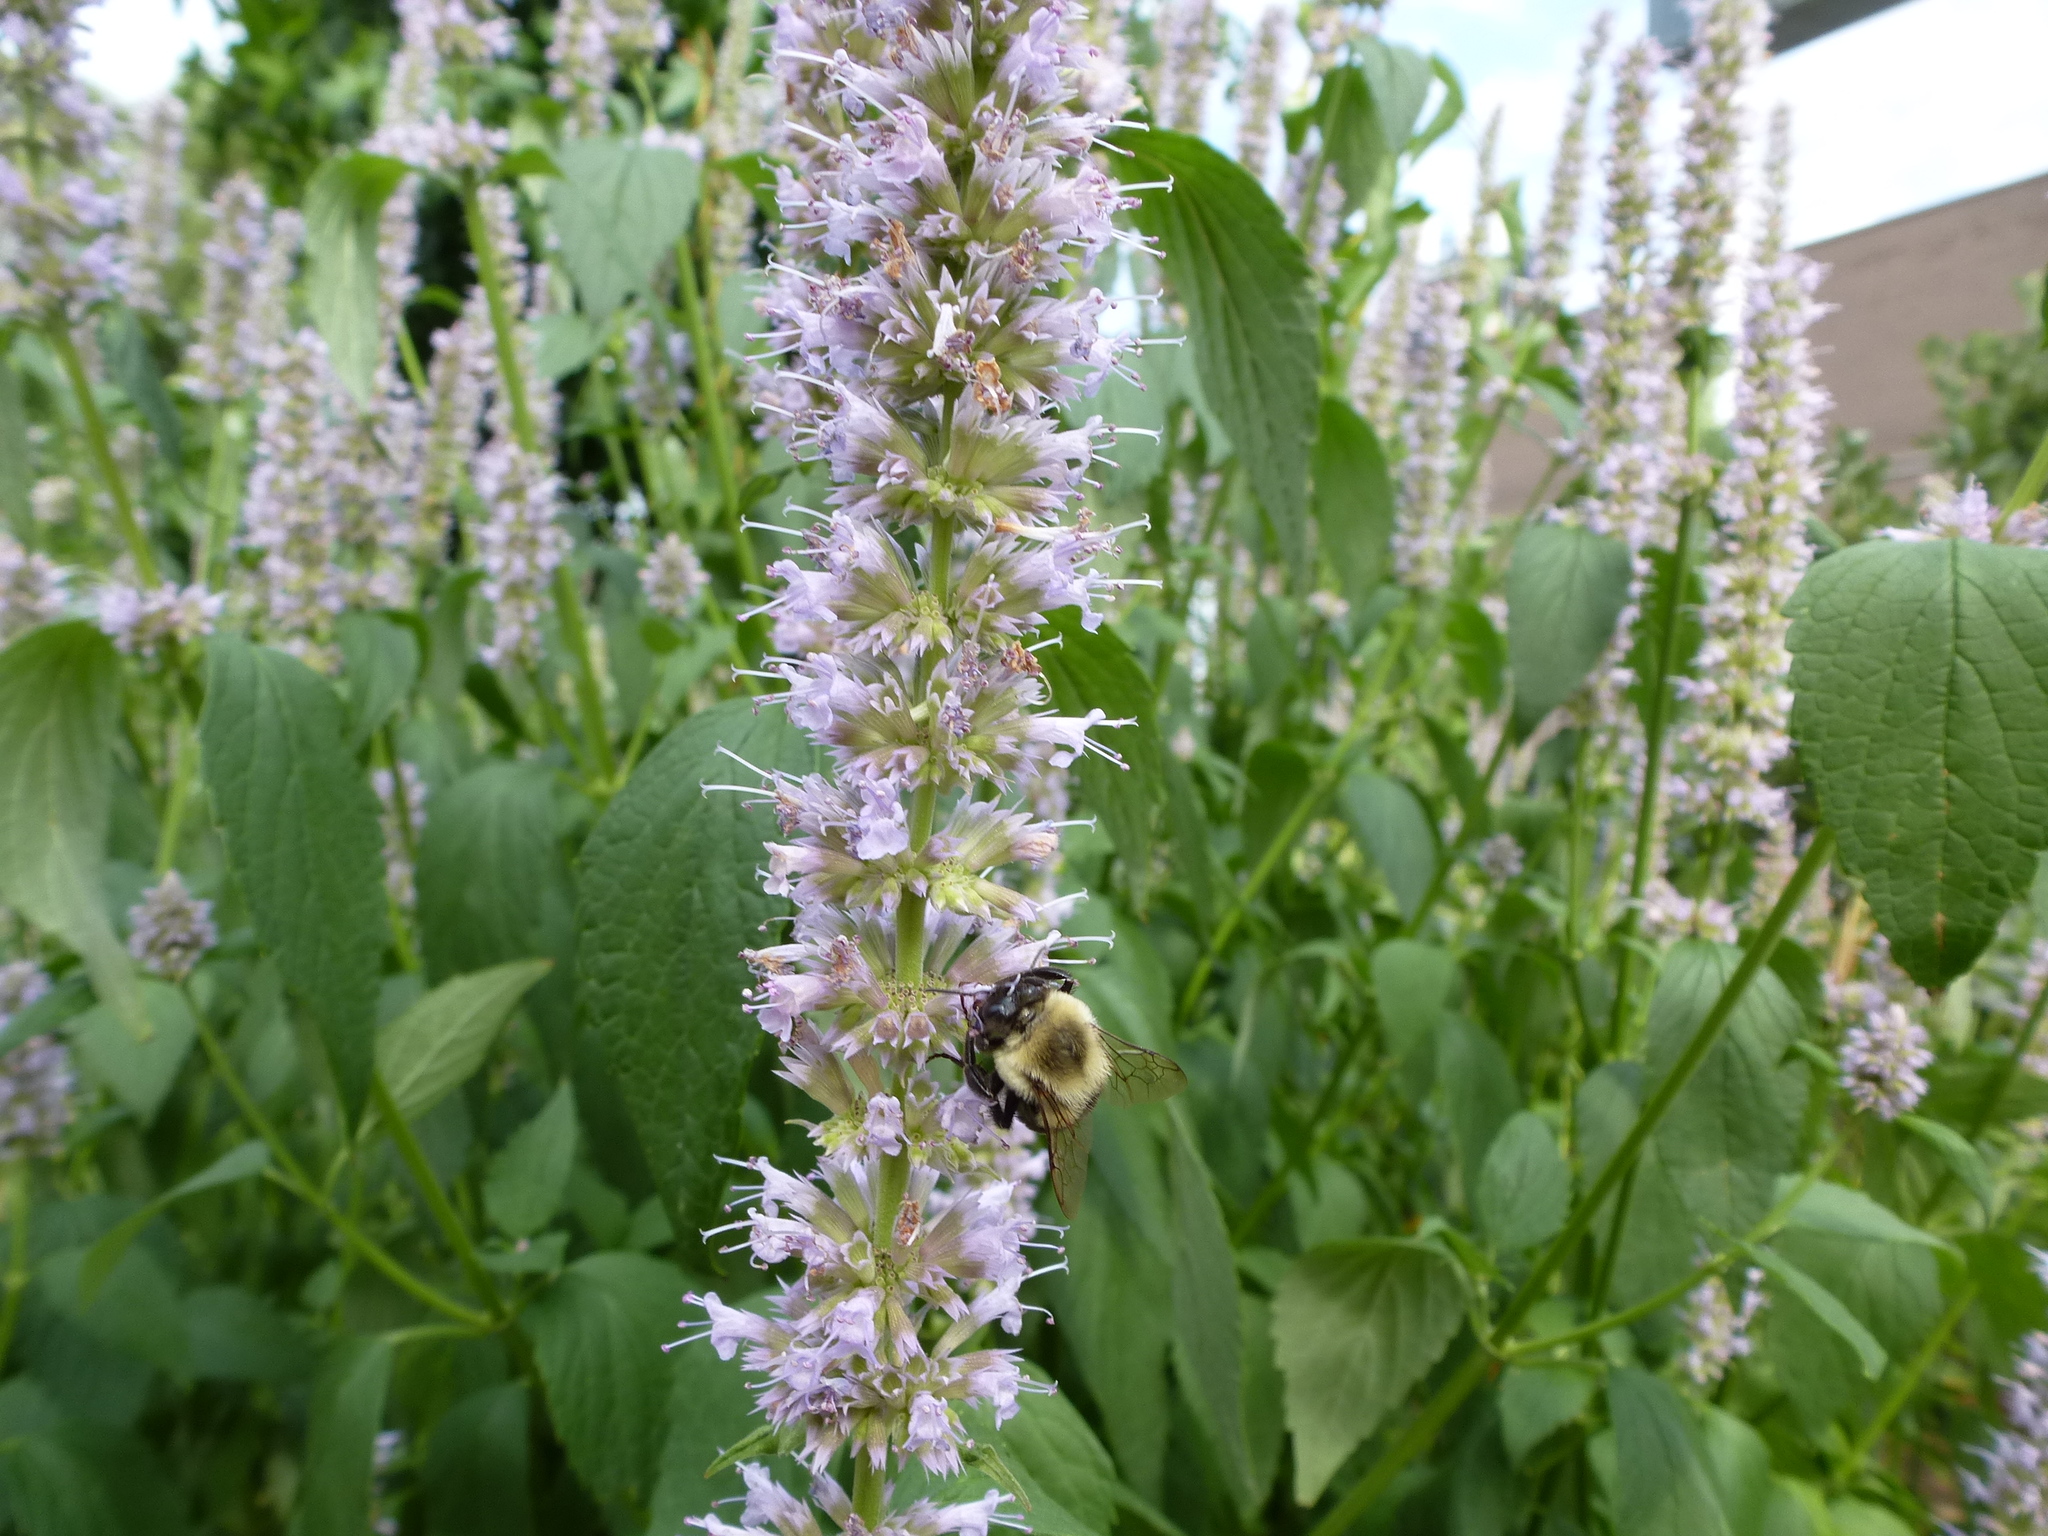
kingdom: Animalia
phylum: Arthropoda
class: Insecta
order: Hymenoptera
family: Apidae
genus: Bombus
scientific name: Bombus impatiens
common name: Common eastern bumble bee
